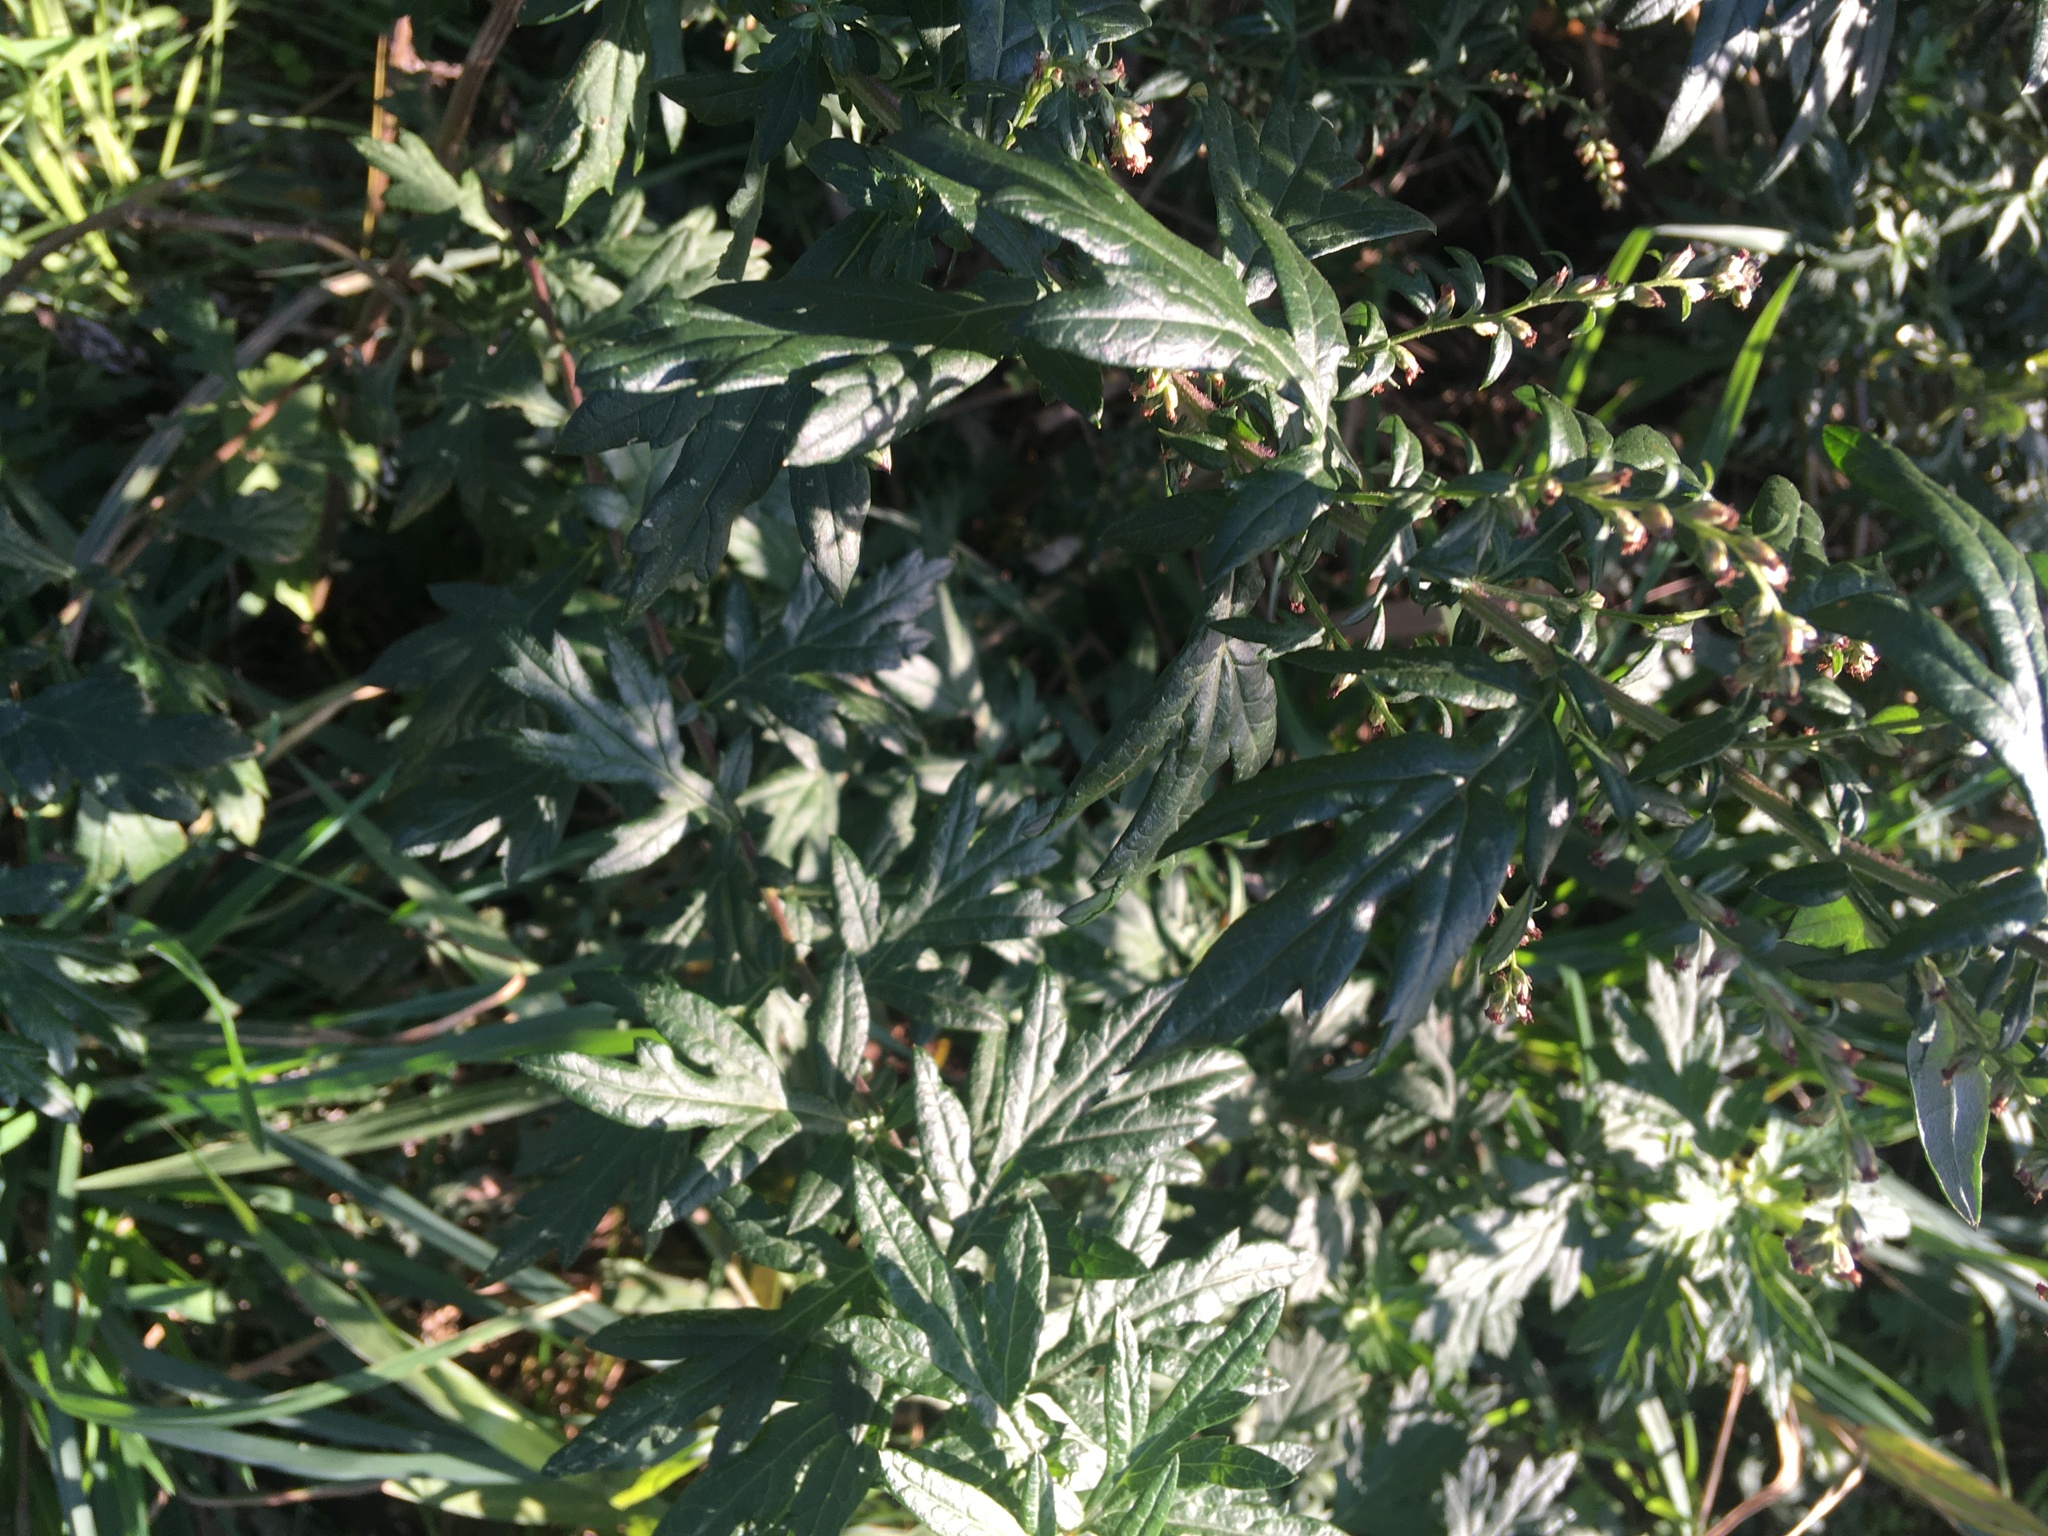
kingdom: Plantae
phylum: Tracheophyta
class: Magnoliopsida
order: Asterales
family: Asteraceae
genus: Artemisia
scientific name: Artemisia vulgaris
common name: Mugwort
